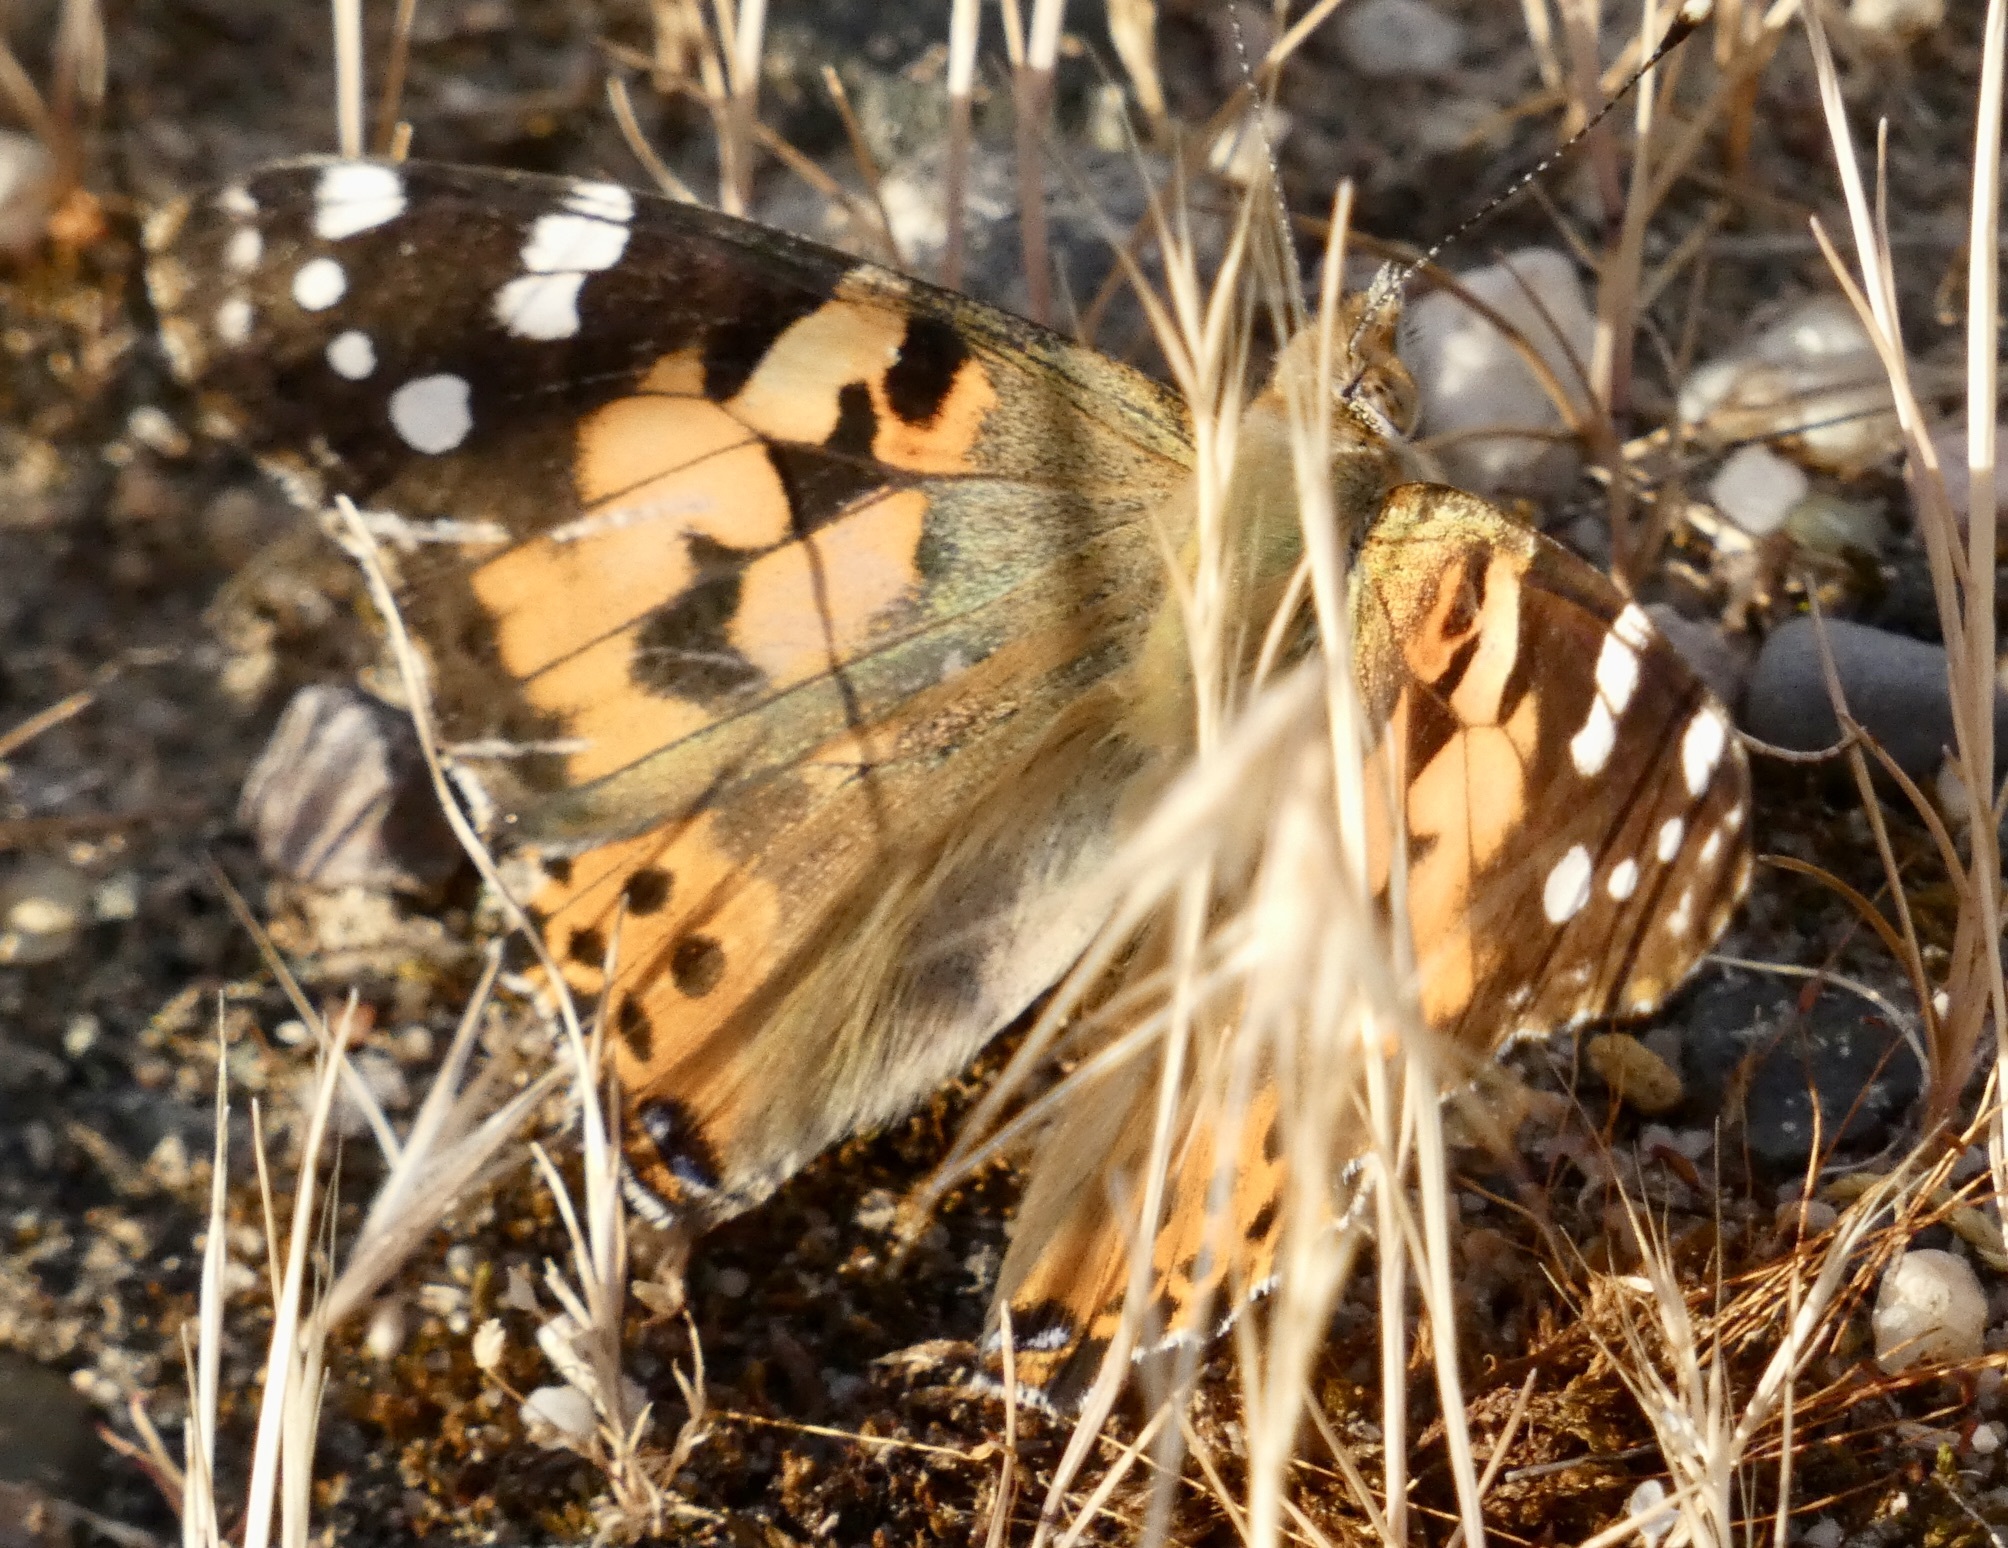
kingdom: Animalia
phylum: Arthropoda
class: Insecta
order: Lepidoptera
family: Nymphalidae
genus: Vanessa
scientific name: Vanessa cardui
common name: Painted lady
